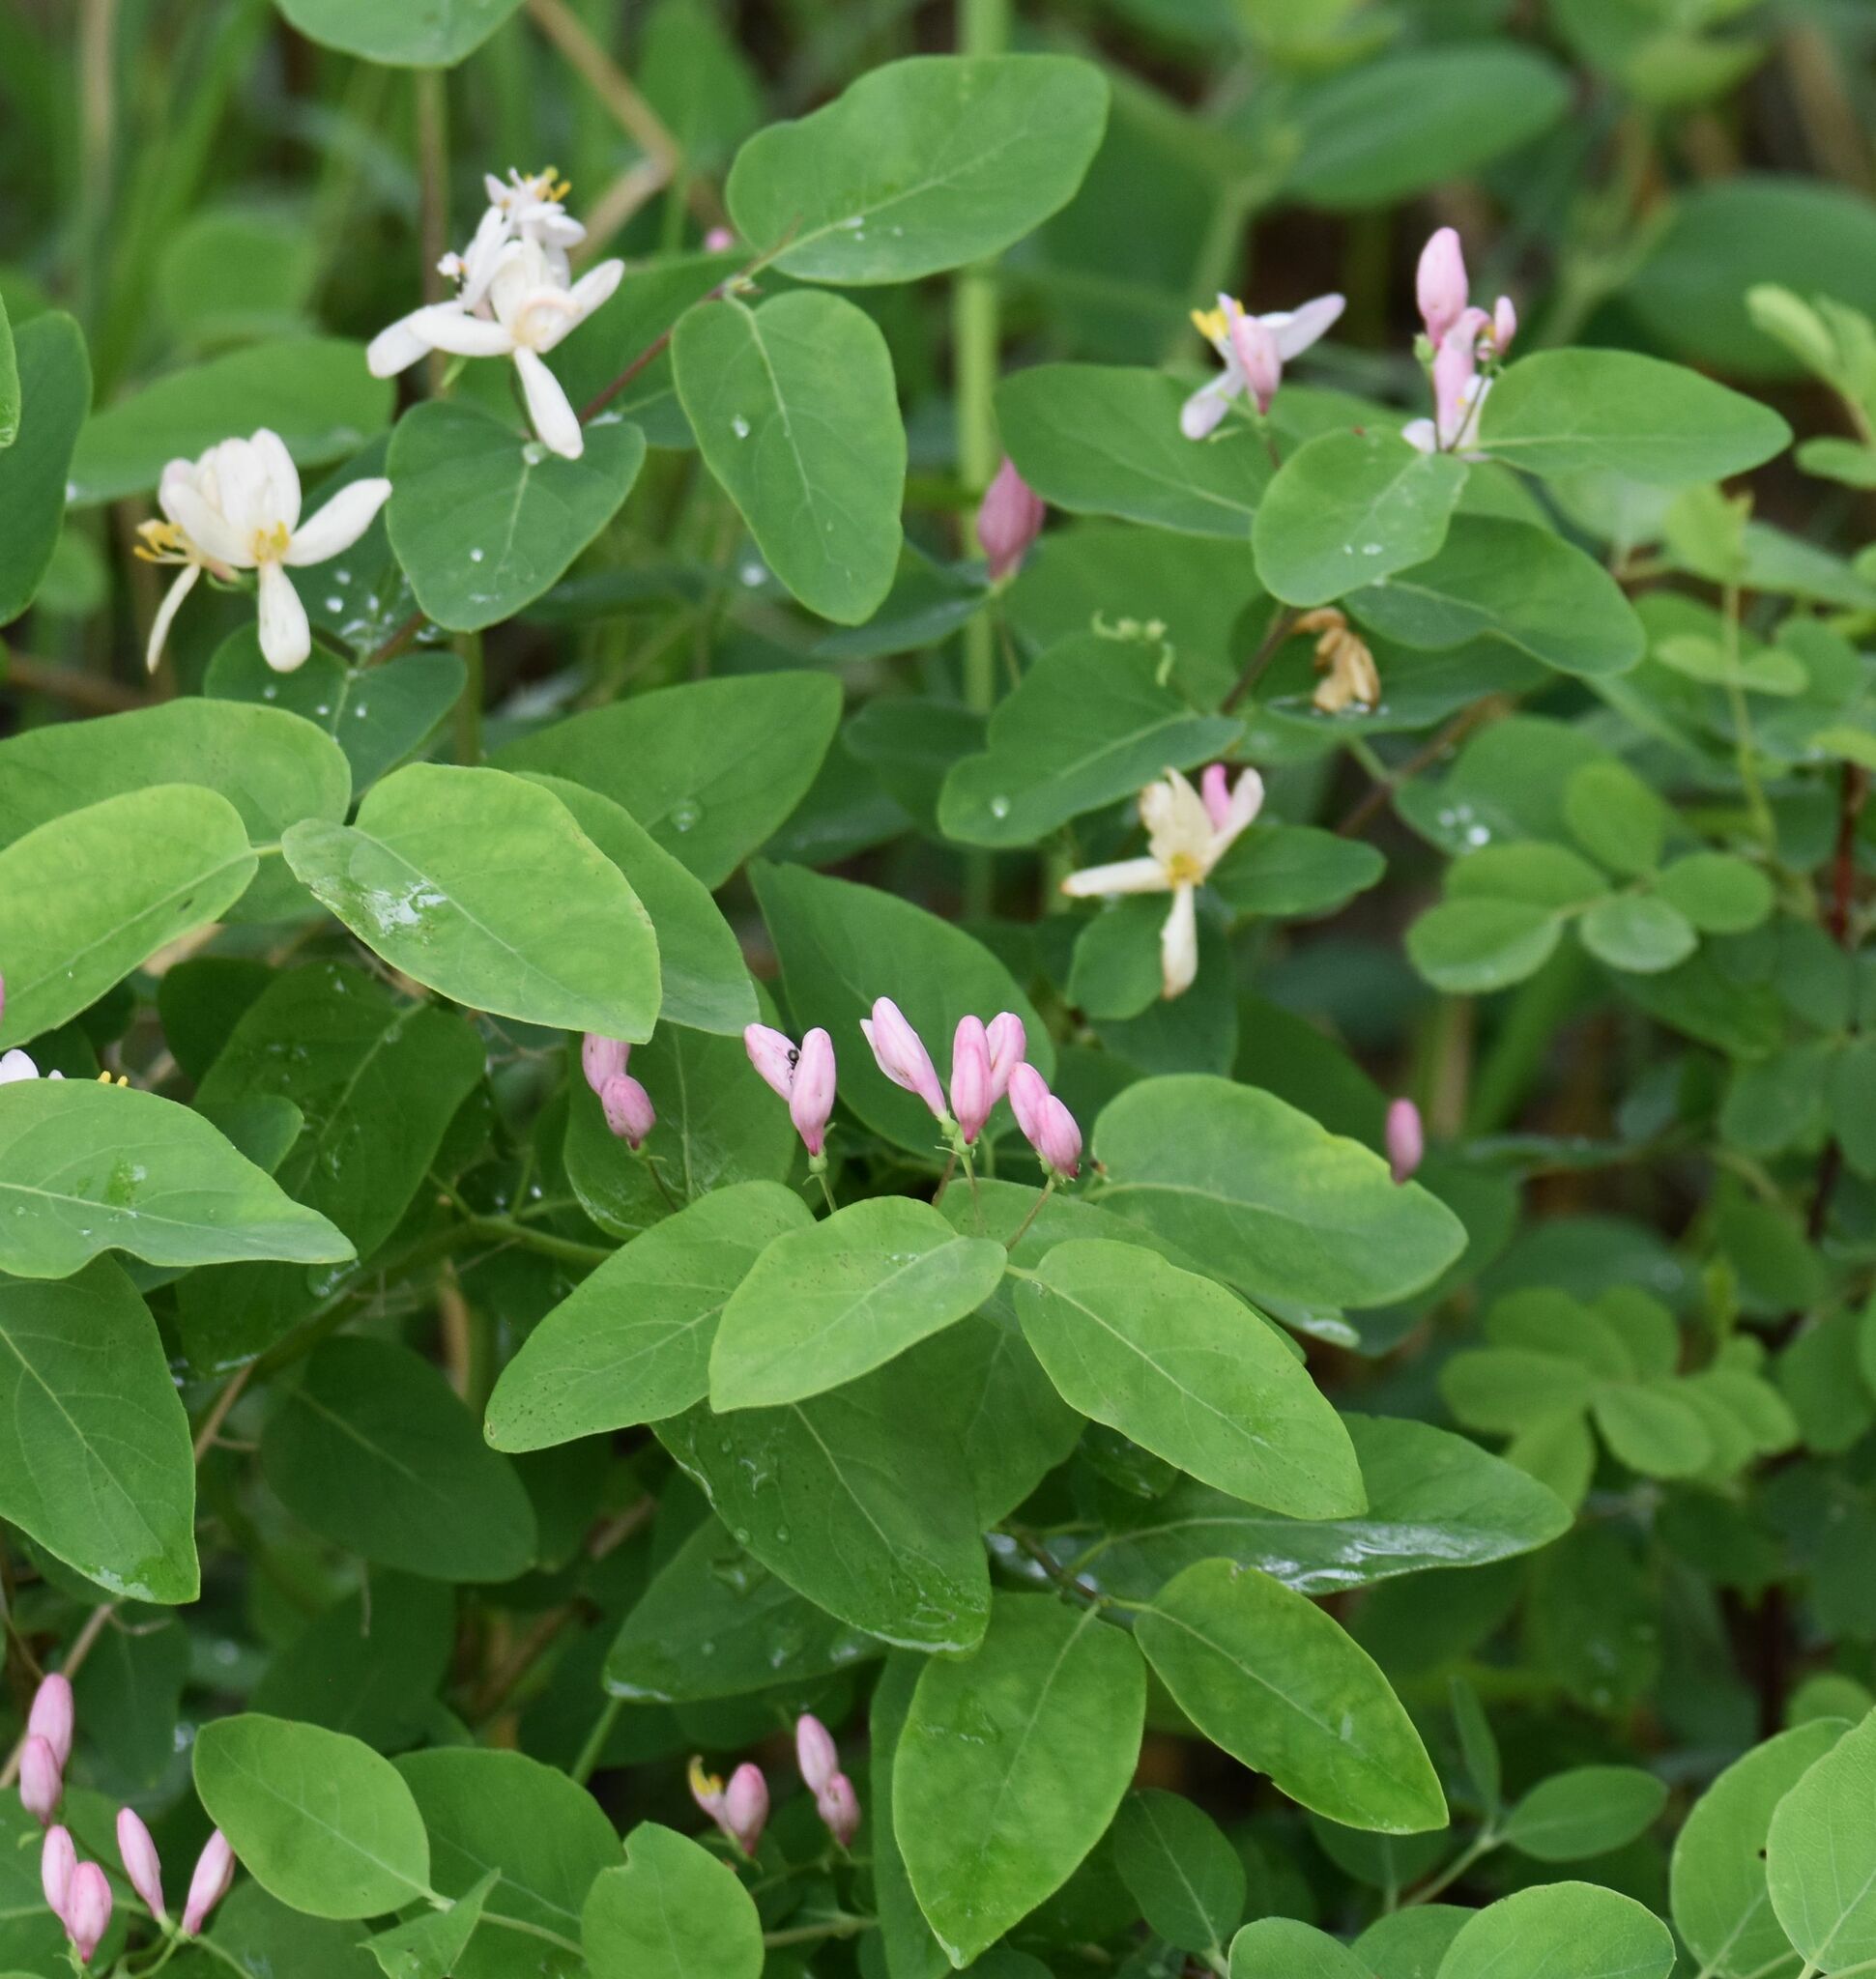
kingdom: Plantae
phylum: Tracheophyta
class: Magnoliopsida
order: Dipsacales
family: Caprifoliaceae
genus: Lonicera
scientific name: Lonicera tatarica
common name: Tatarian honeysuckle
